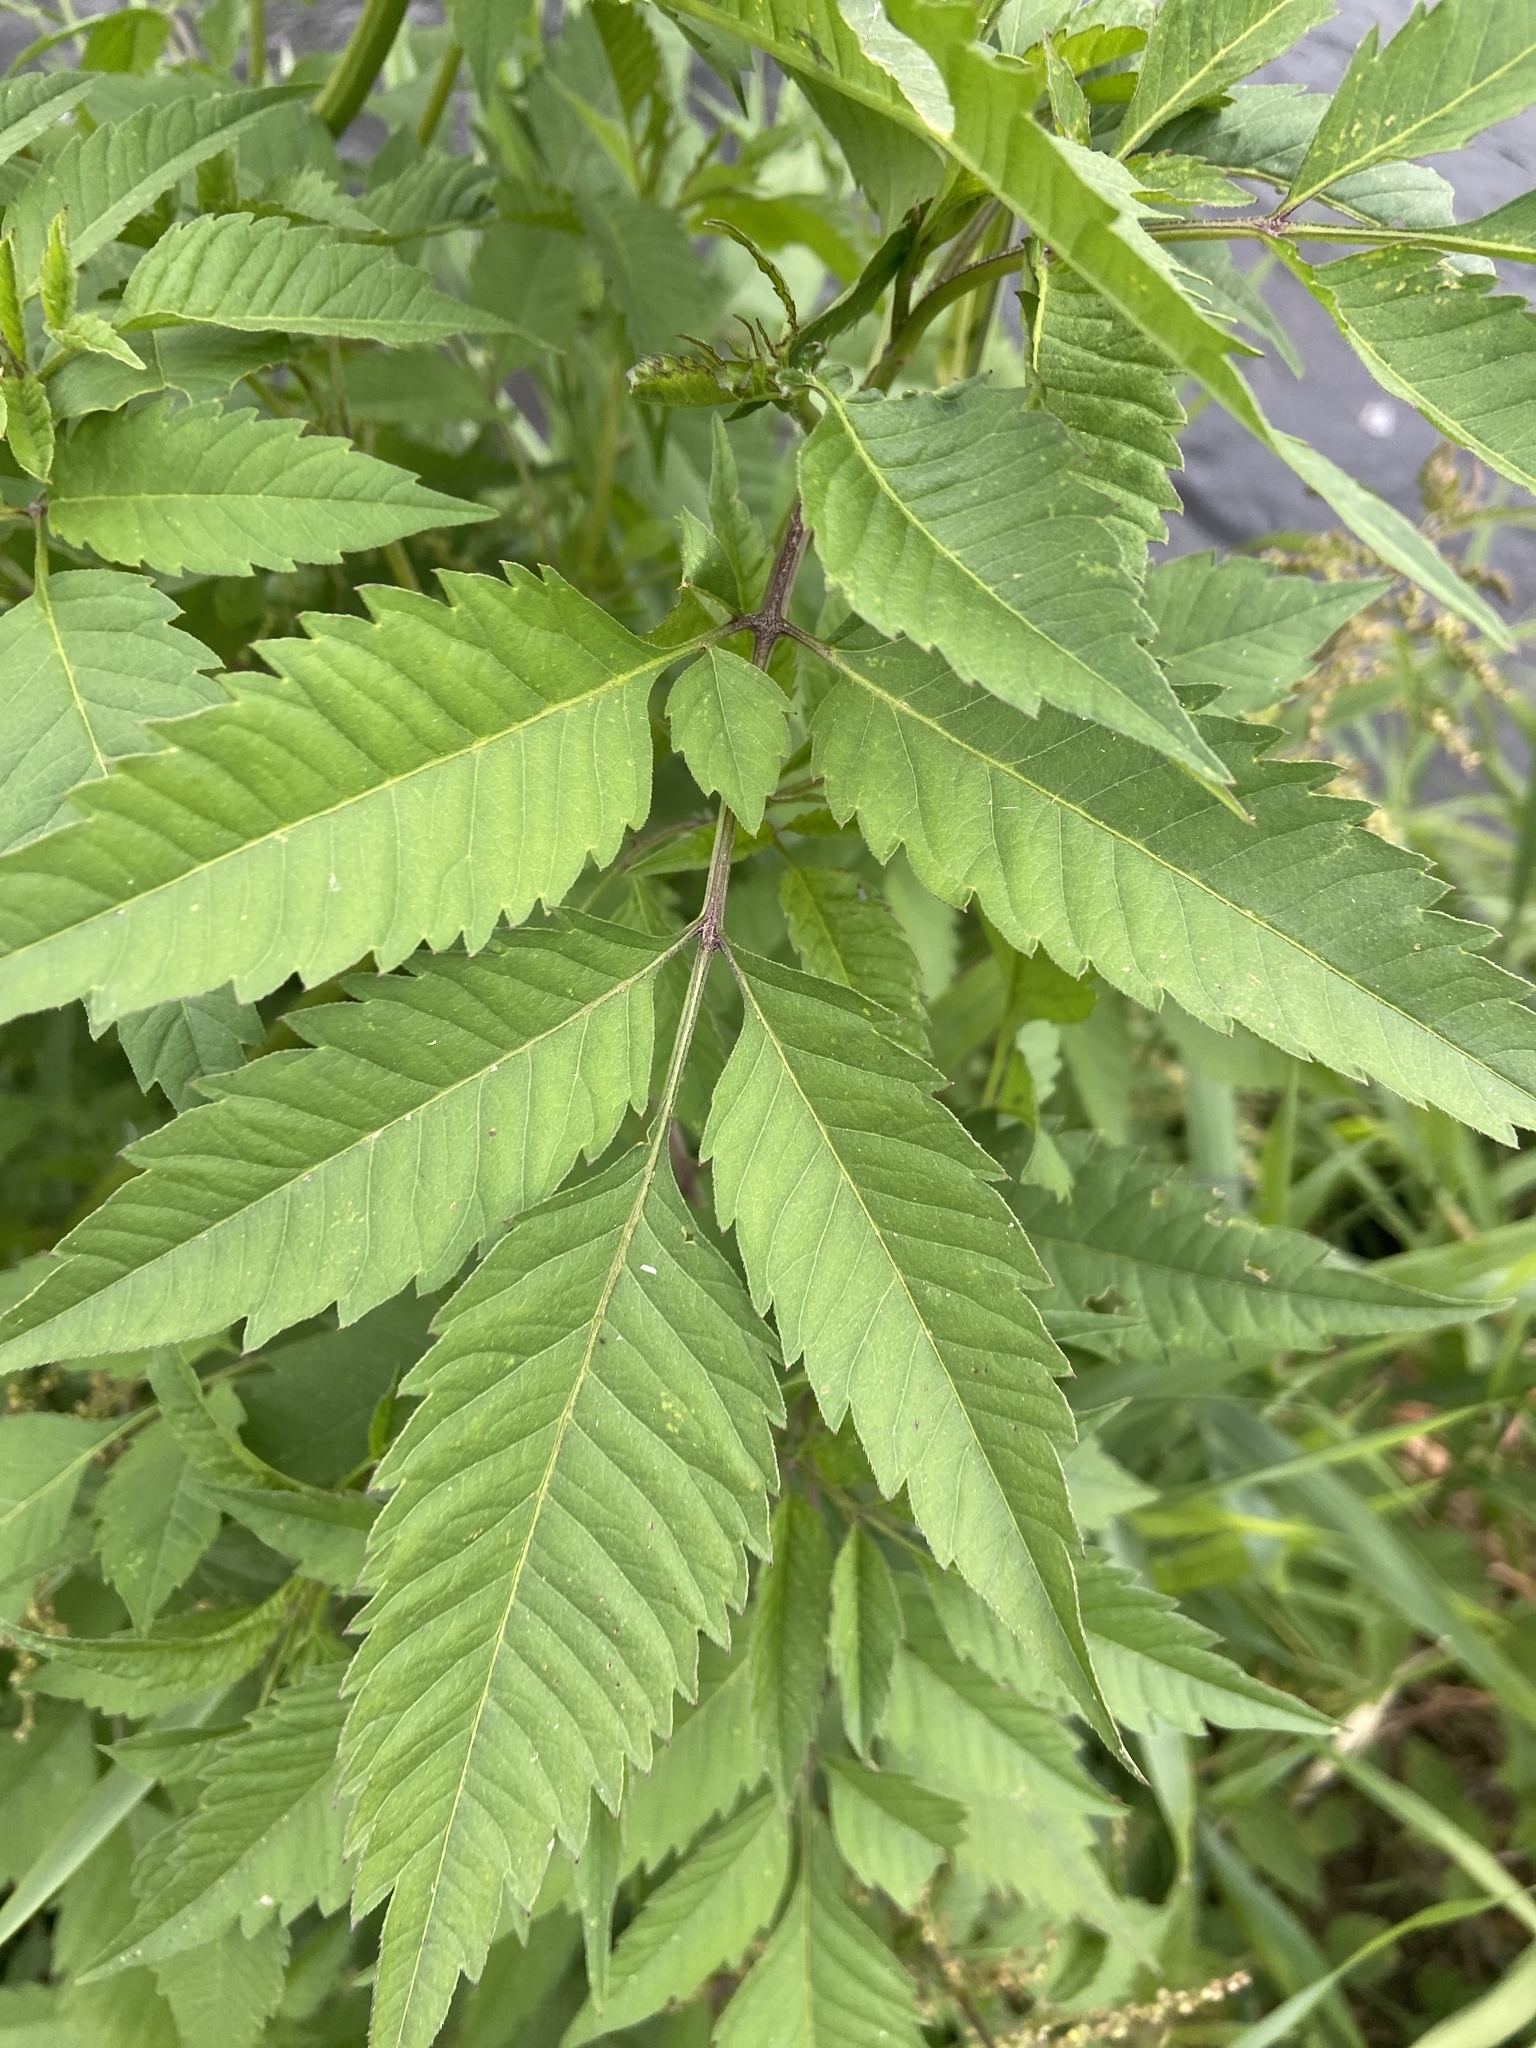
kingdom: Plantae
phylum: Tracheophyta
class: Magnoliopsida
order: Asterales
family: Asteraceae
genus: Bidens
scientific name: Bidens frondosa
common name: Beggarticks
